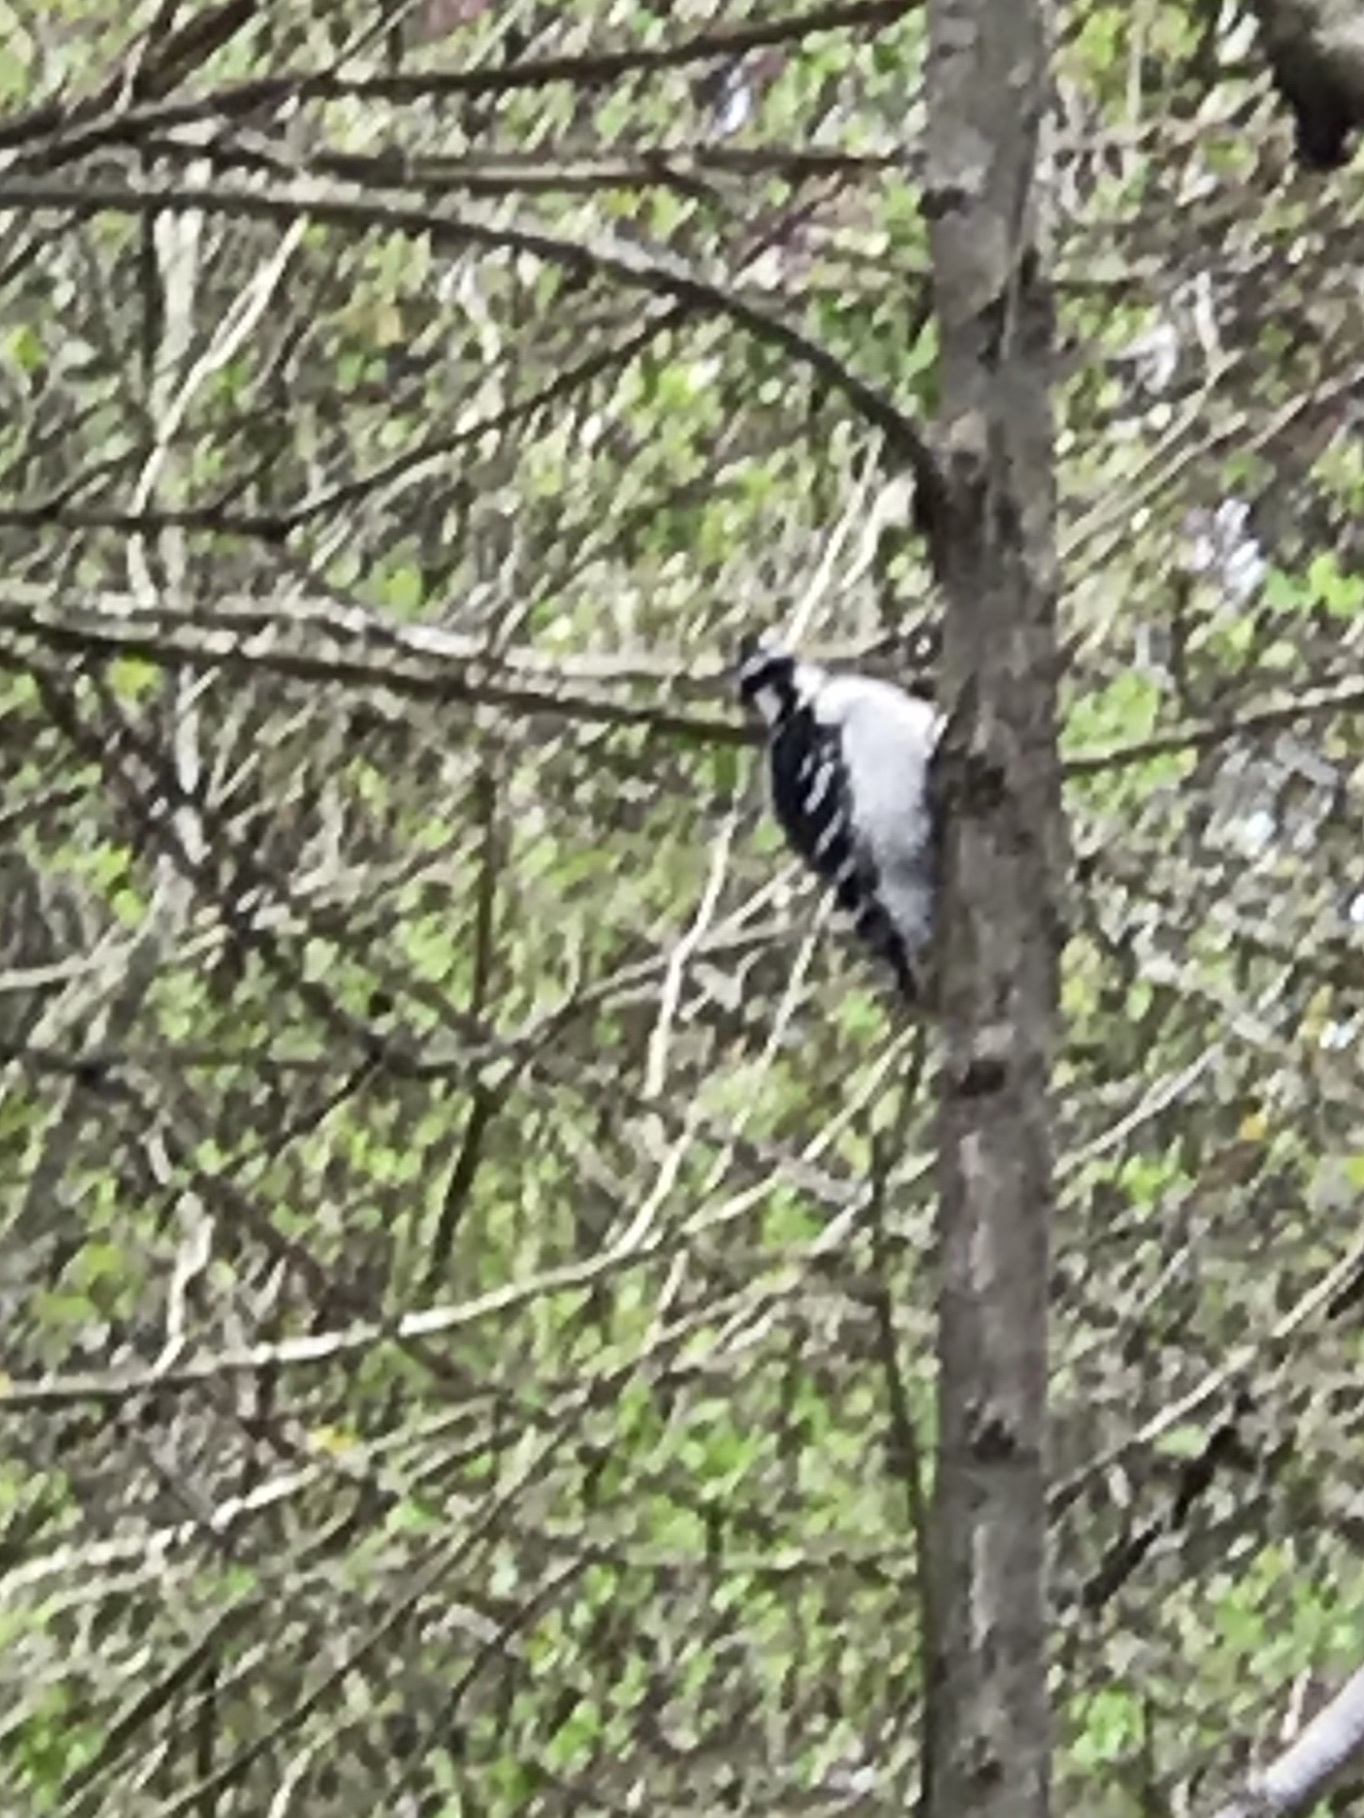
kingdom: Animalia
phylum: Chordata
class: Aves
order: Piciformes
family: Picidae
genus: Dryobates
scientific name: Dryobates pubescens
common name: Downy woodpecker
